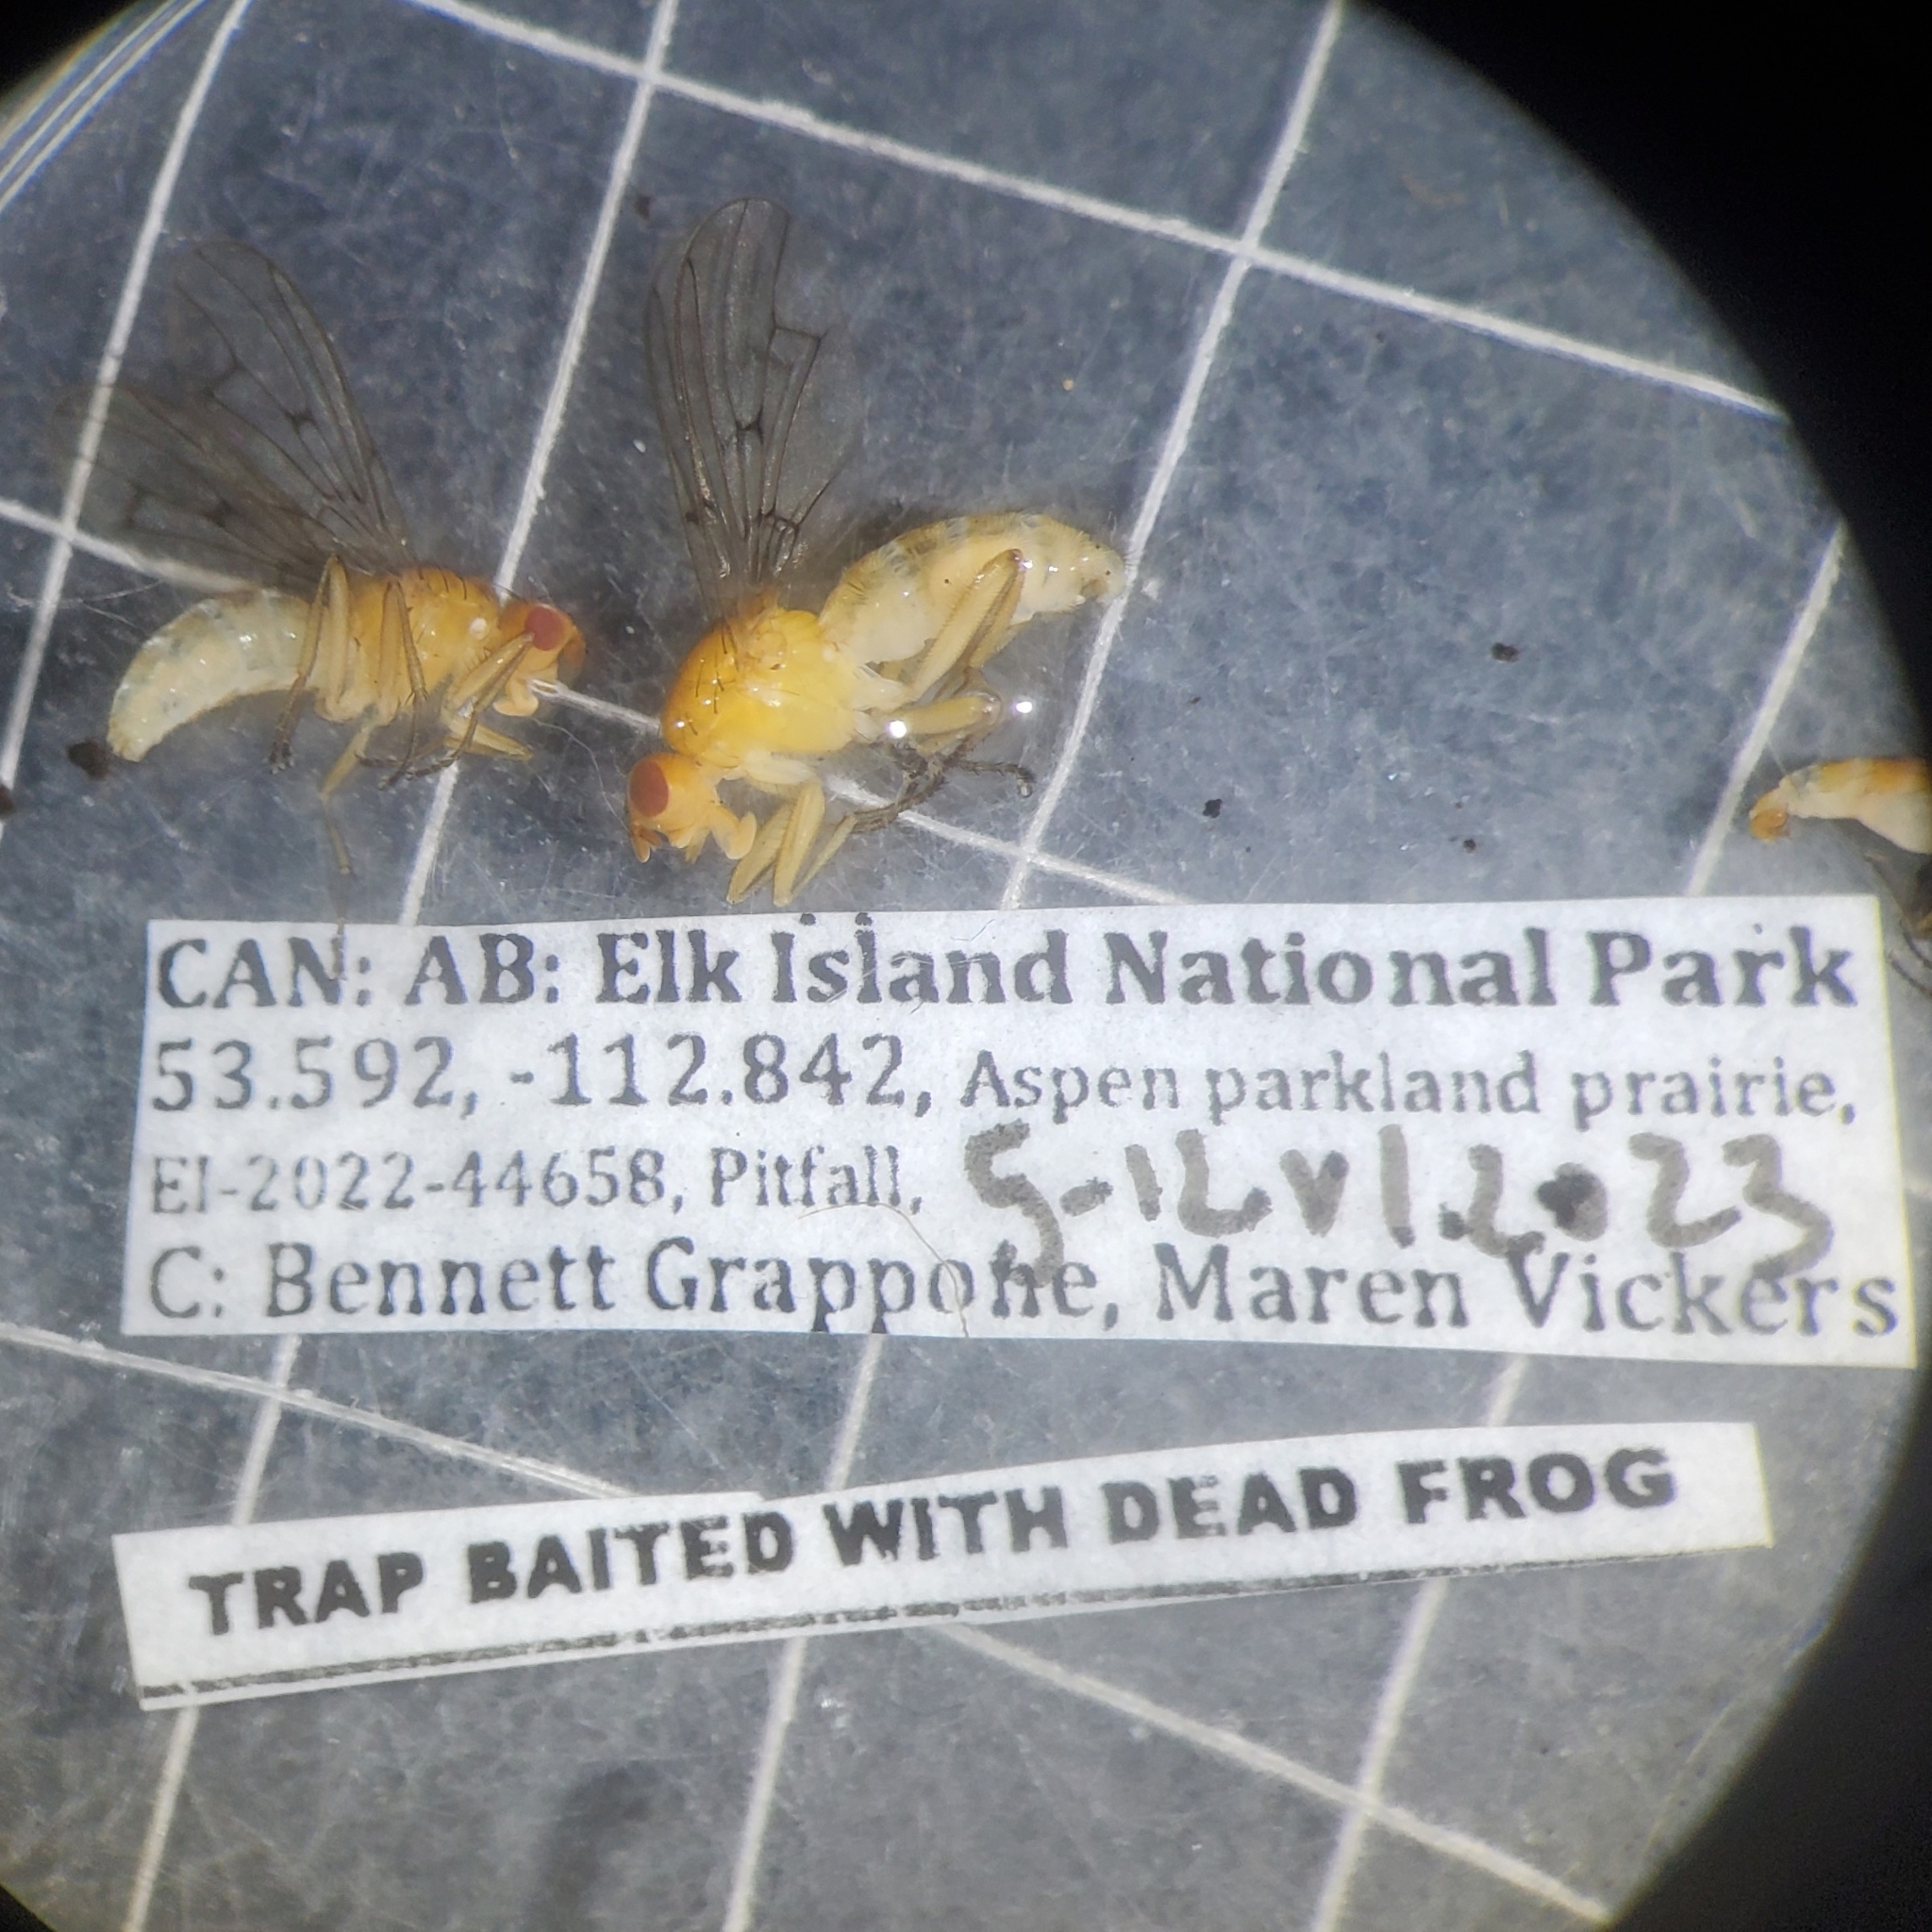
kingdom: Animalia
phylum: Arthropoda
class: Insecta
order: Diptera
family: Dryomyzidae
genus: Dryomyza
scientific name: Dryomyza anilis
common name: Marsh fly
